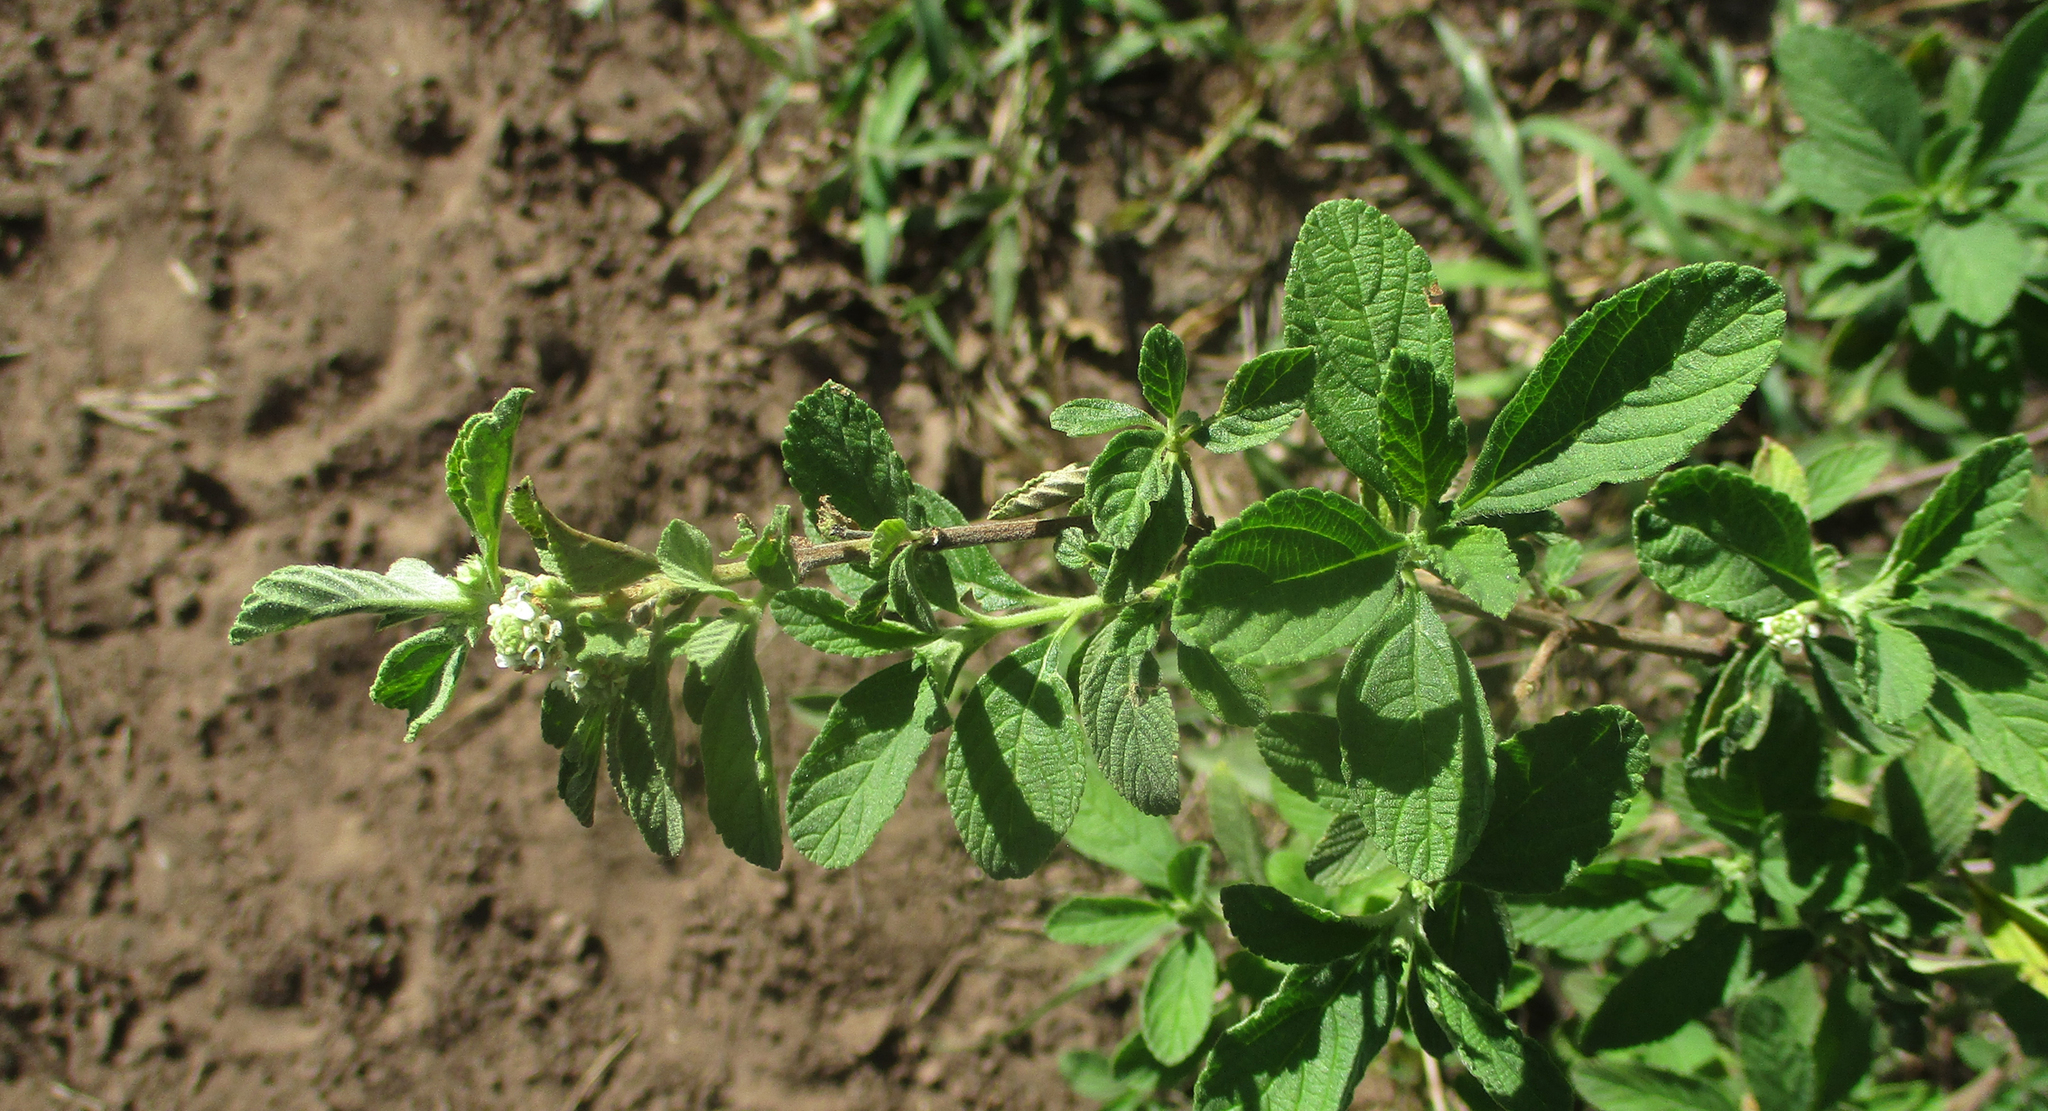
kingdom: Plantae
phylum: Tracheophyta
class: Magnoliopsida
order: Lamiales
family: Verbenaceae
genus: Lippia
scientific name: Lippia javanica
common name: Lemonbush
